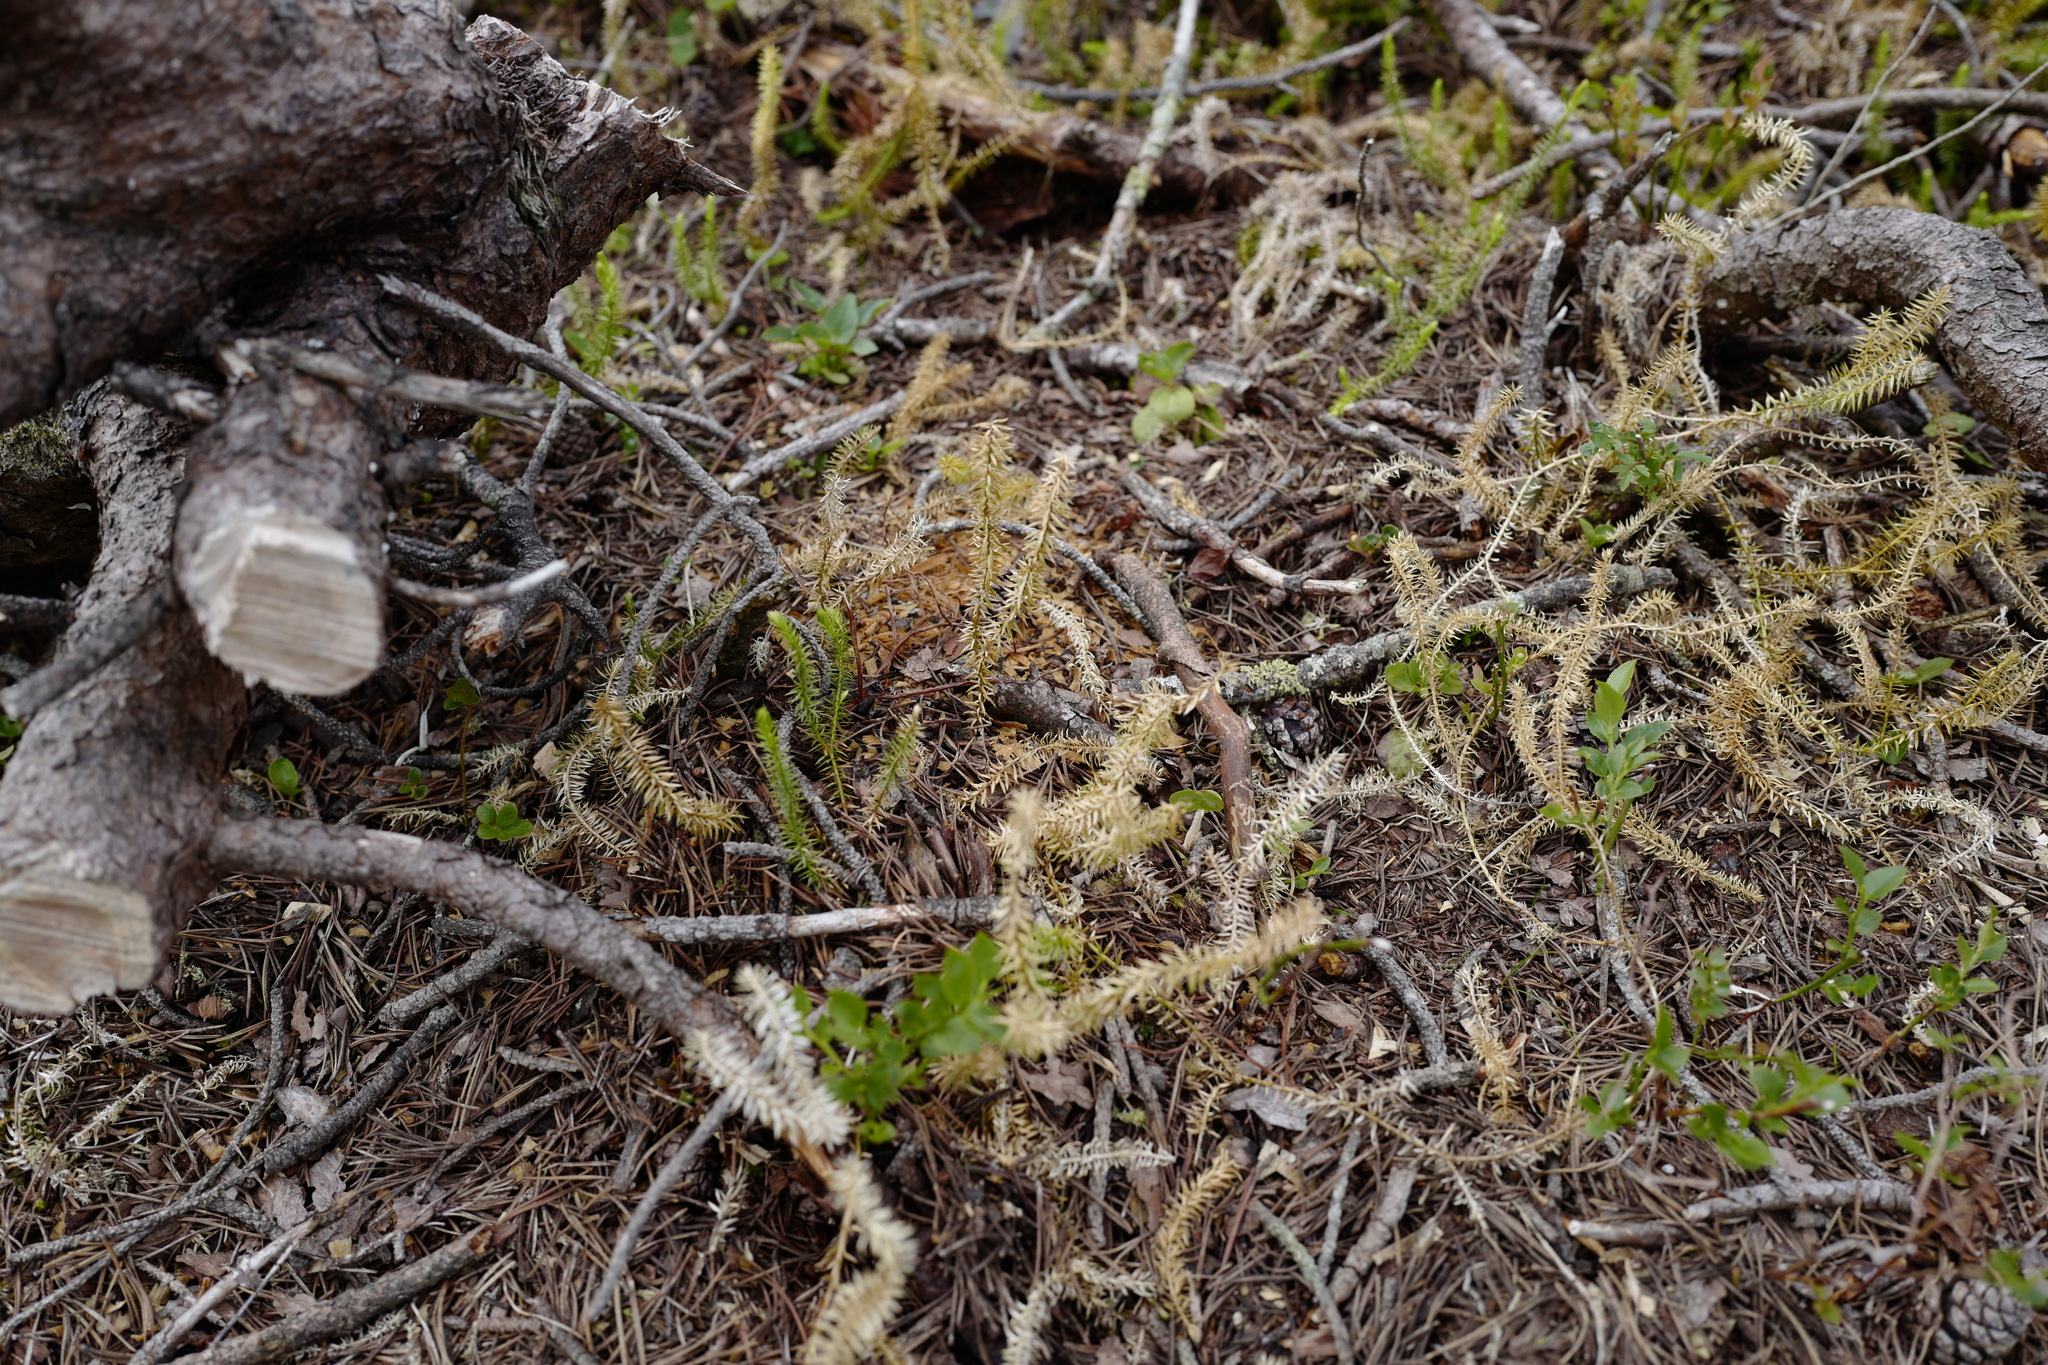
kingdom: Plantae
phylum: Tracheophyta
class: Lycopodiopsida
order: Lycopodiales
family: Lycopodiaceae
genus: Spinulum
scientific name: Spinulum annotinum
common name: Interrupted club-moss
